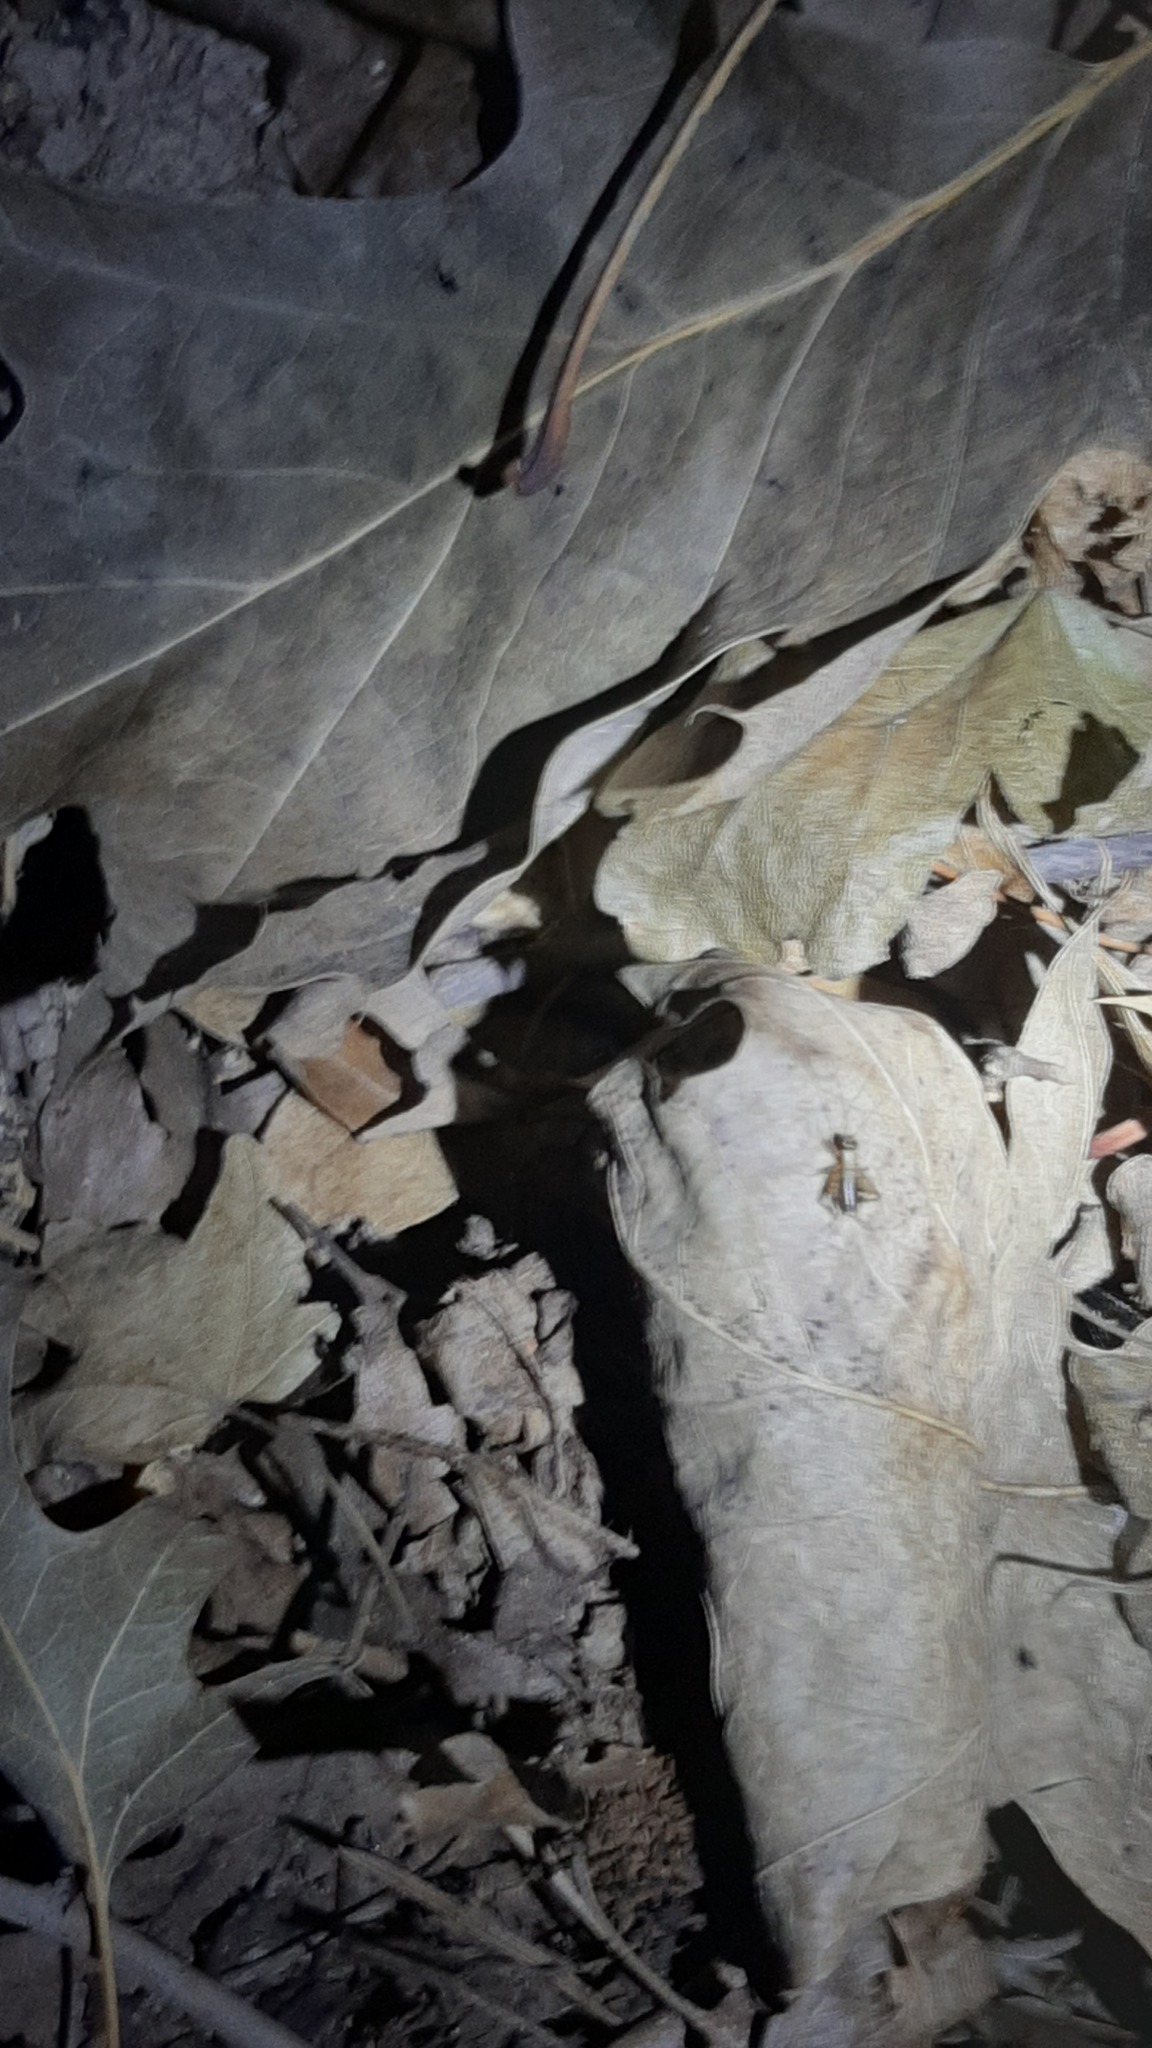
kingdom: Animalia
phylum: Arthropoda
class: Insecta
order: Orthoptera
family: Trigonidiidae
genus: Nemobius
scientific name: Nemobius sylvestris
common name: Wood-cricket
